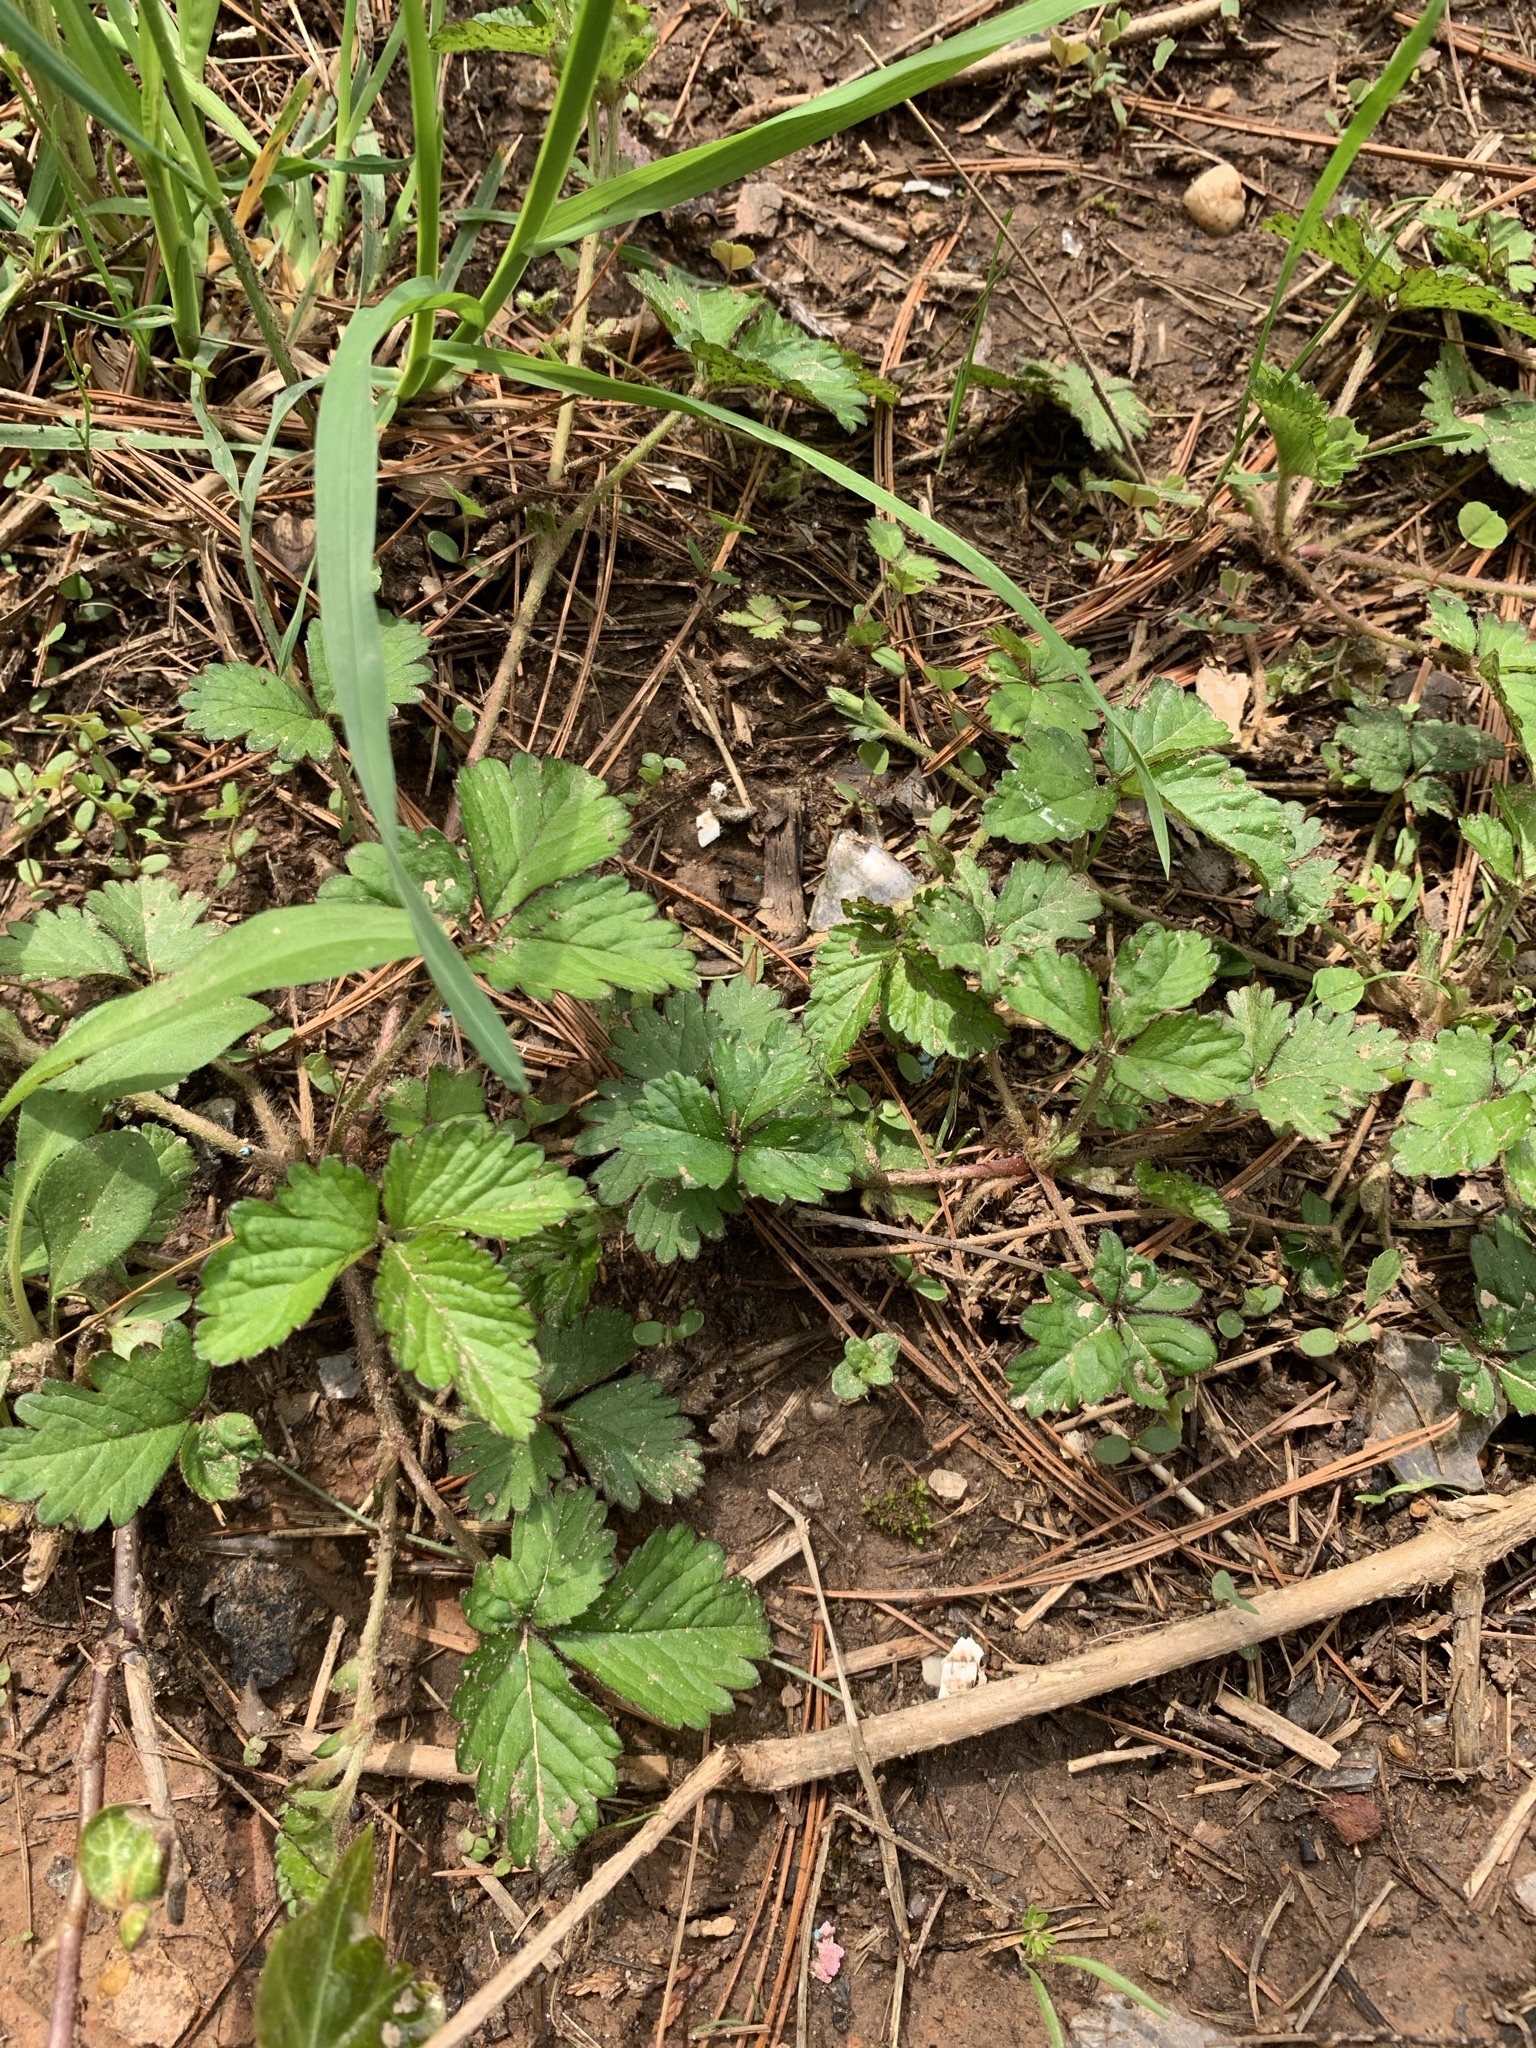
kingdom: Plantae
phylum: Tracheophyta
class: Magnoliopsida
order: Rosales
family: Rosaceae
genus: Potentilla
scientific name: Potentilla indica
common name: Yellow-flowered strawberry
